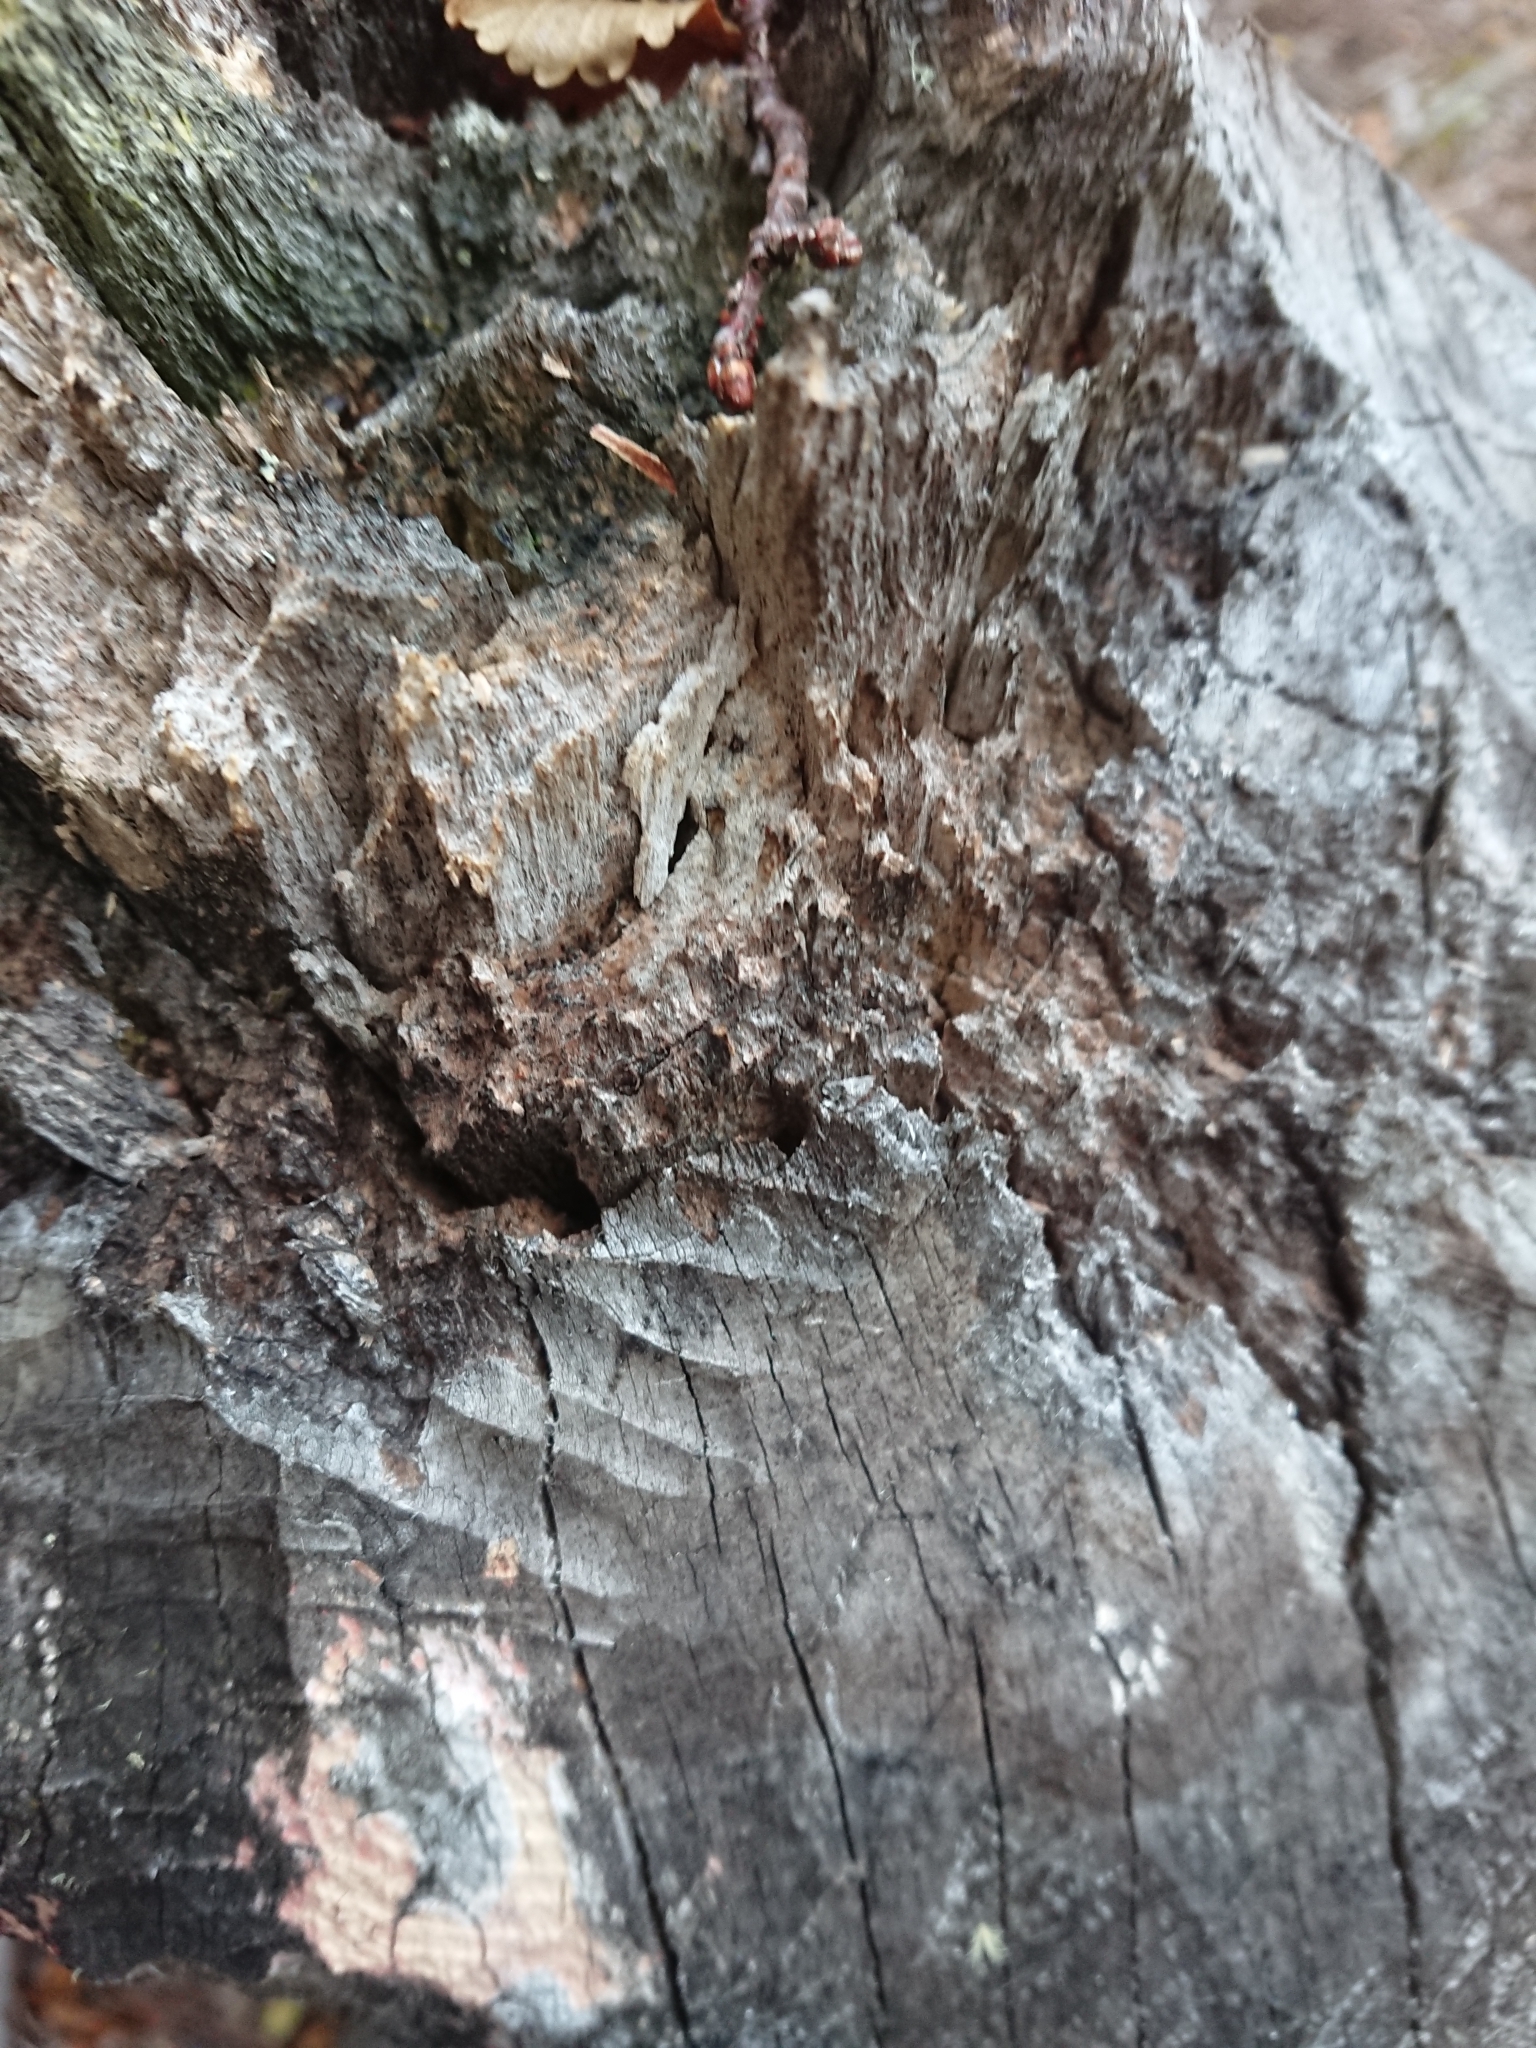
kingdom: Animalia
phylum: Chordata
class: Mammalia
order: Rodentia
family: Castoridae
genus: Castor
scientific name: Castor canadensis
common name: American beaver
